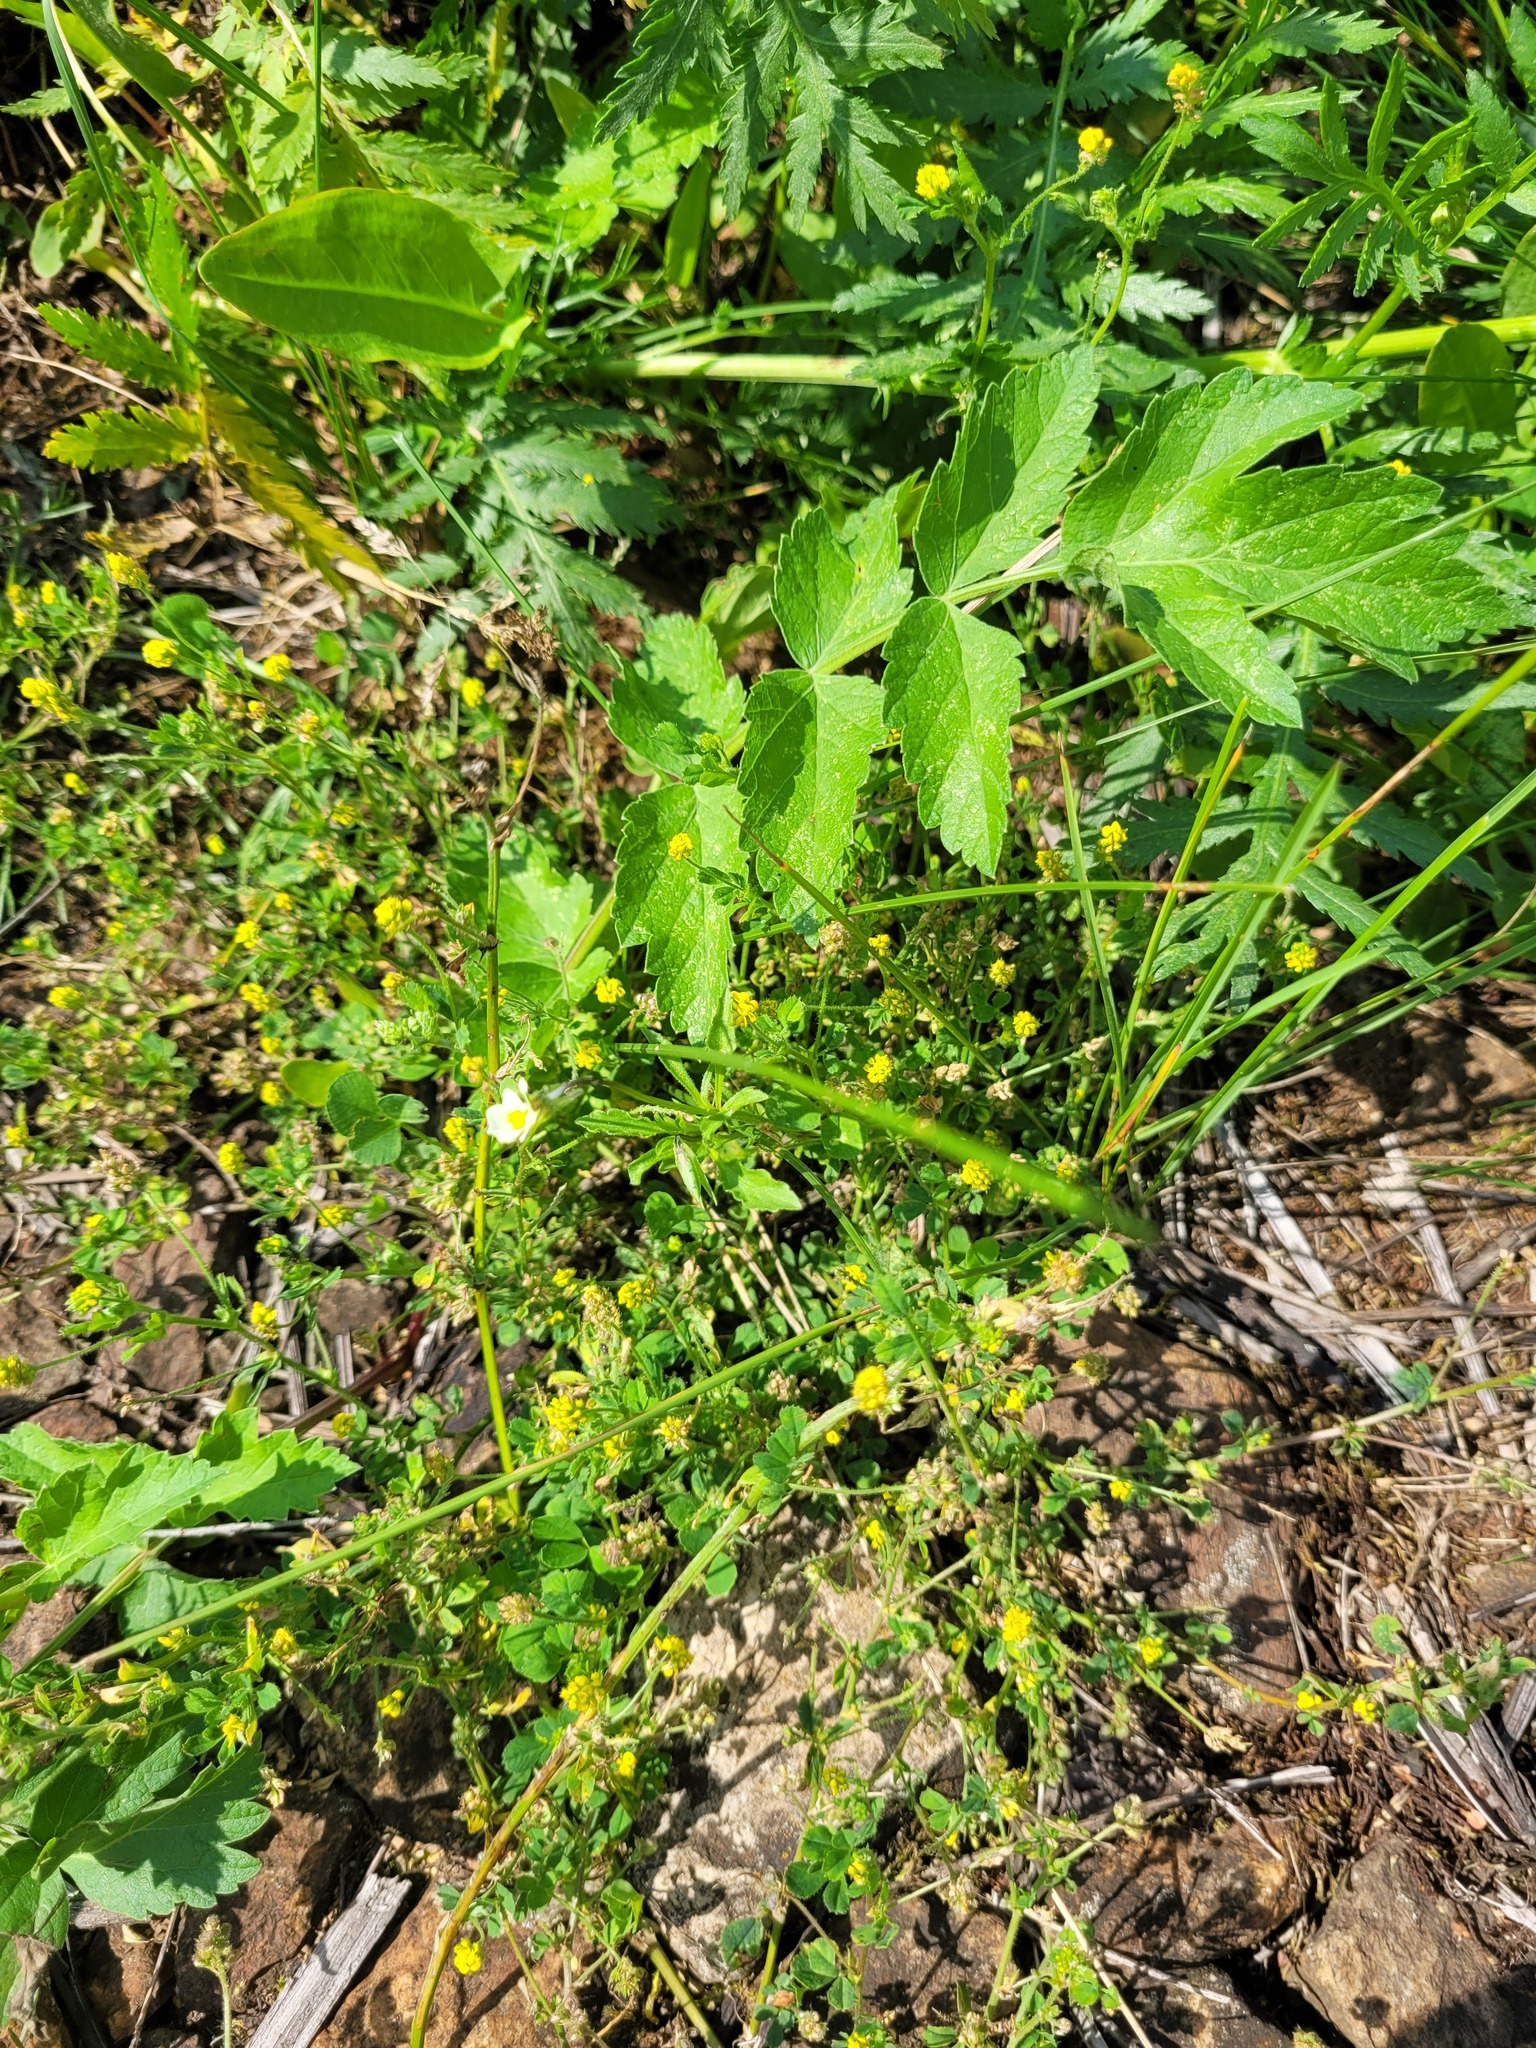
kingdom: Plantae
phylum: Tracheophyta
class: Magnoliopsida
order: Fabales
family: Fabaceae
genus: Medicago
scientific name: Medicago lupulina
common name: Black medick
